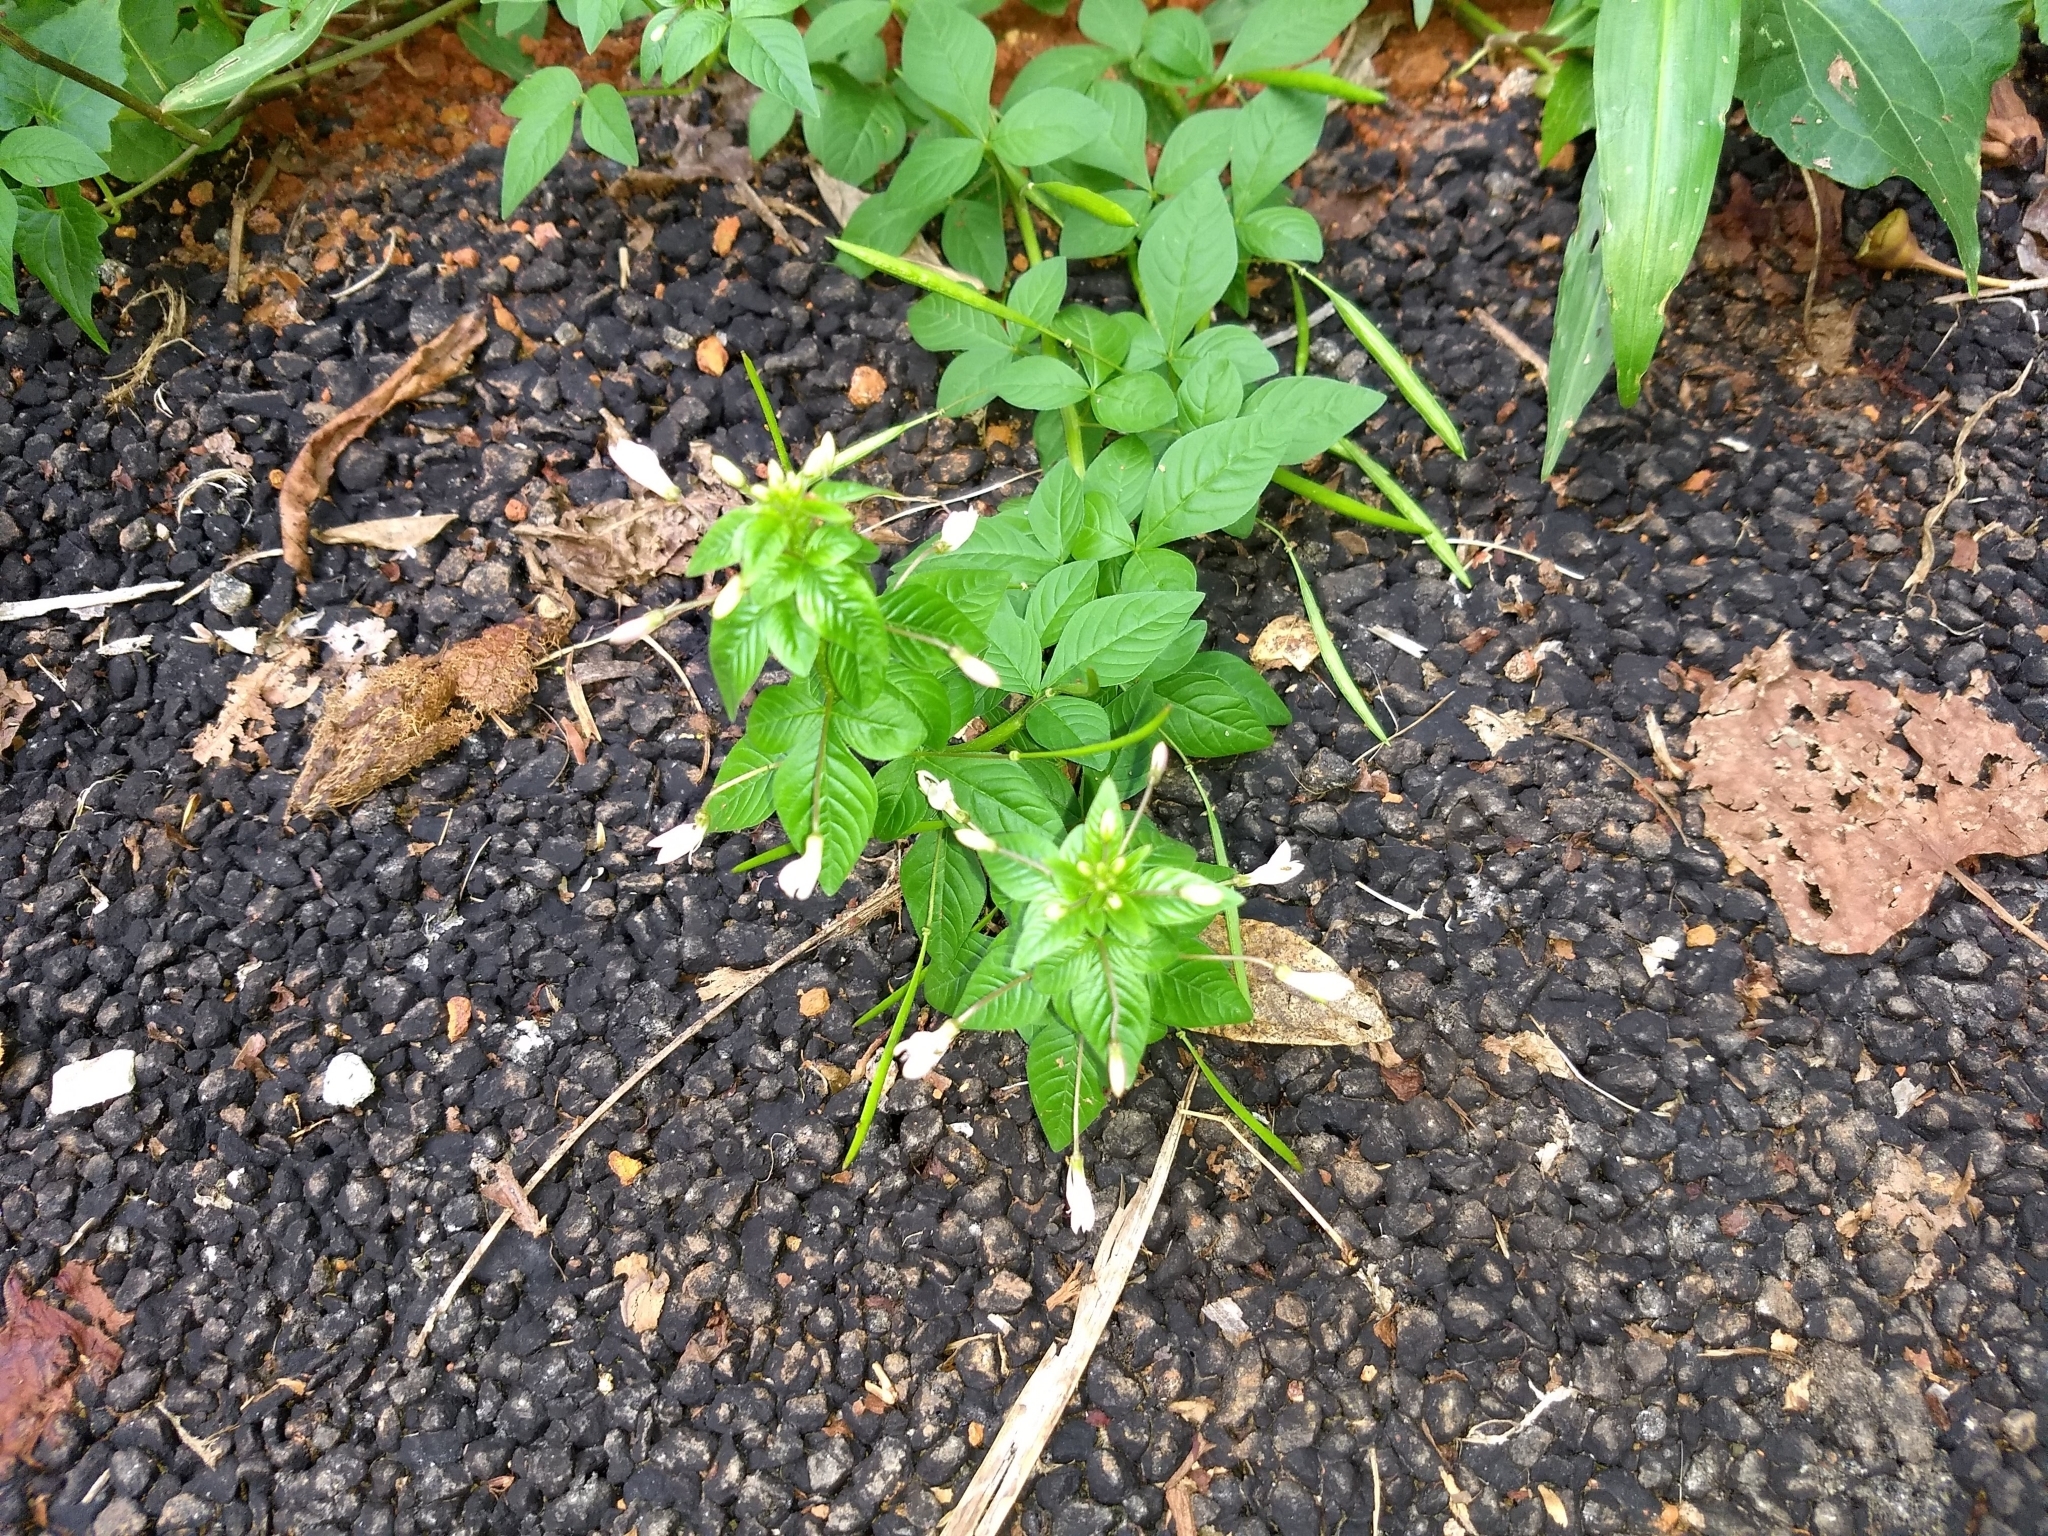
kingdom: Plantae
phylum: Tracheophyta
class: Magnoliopsida
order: Brassicales
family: Cleomaceae
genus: Sieruela
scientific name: Sieruela rutidosperma
